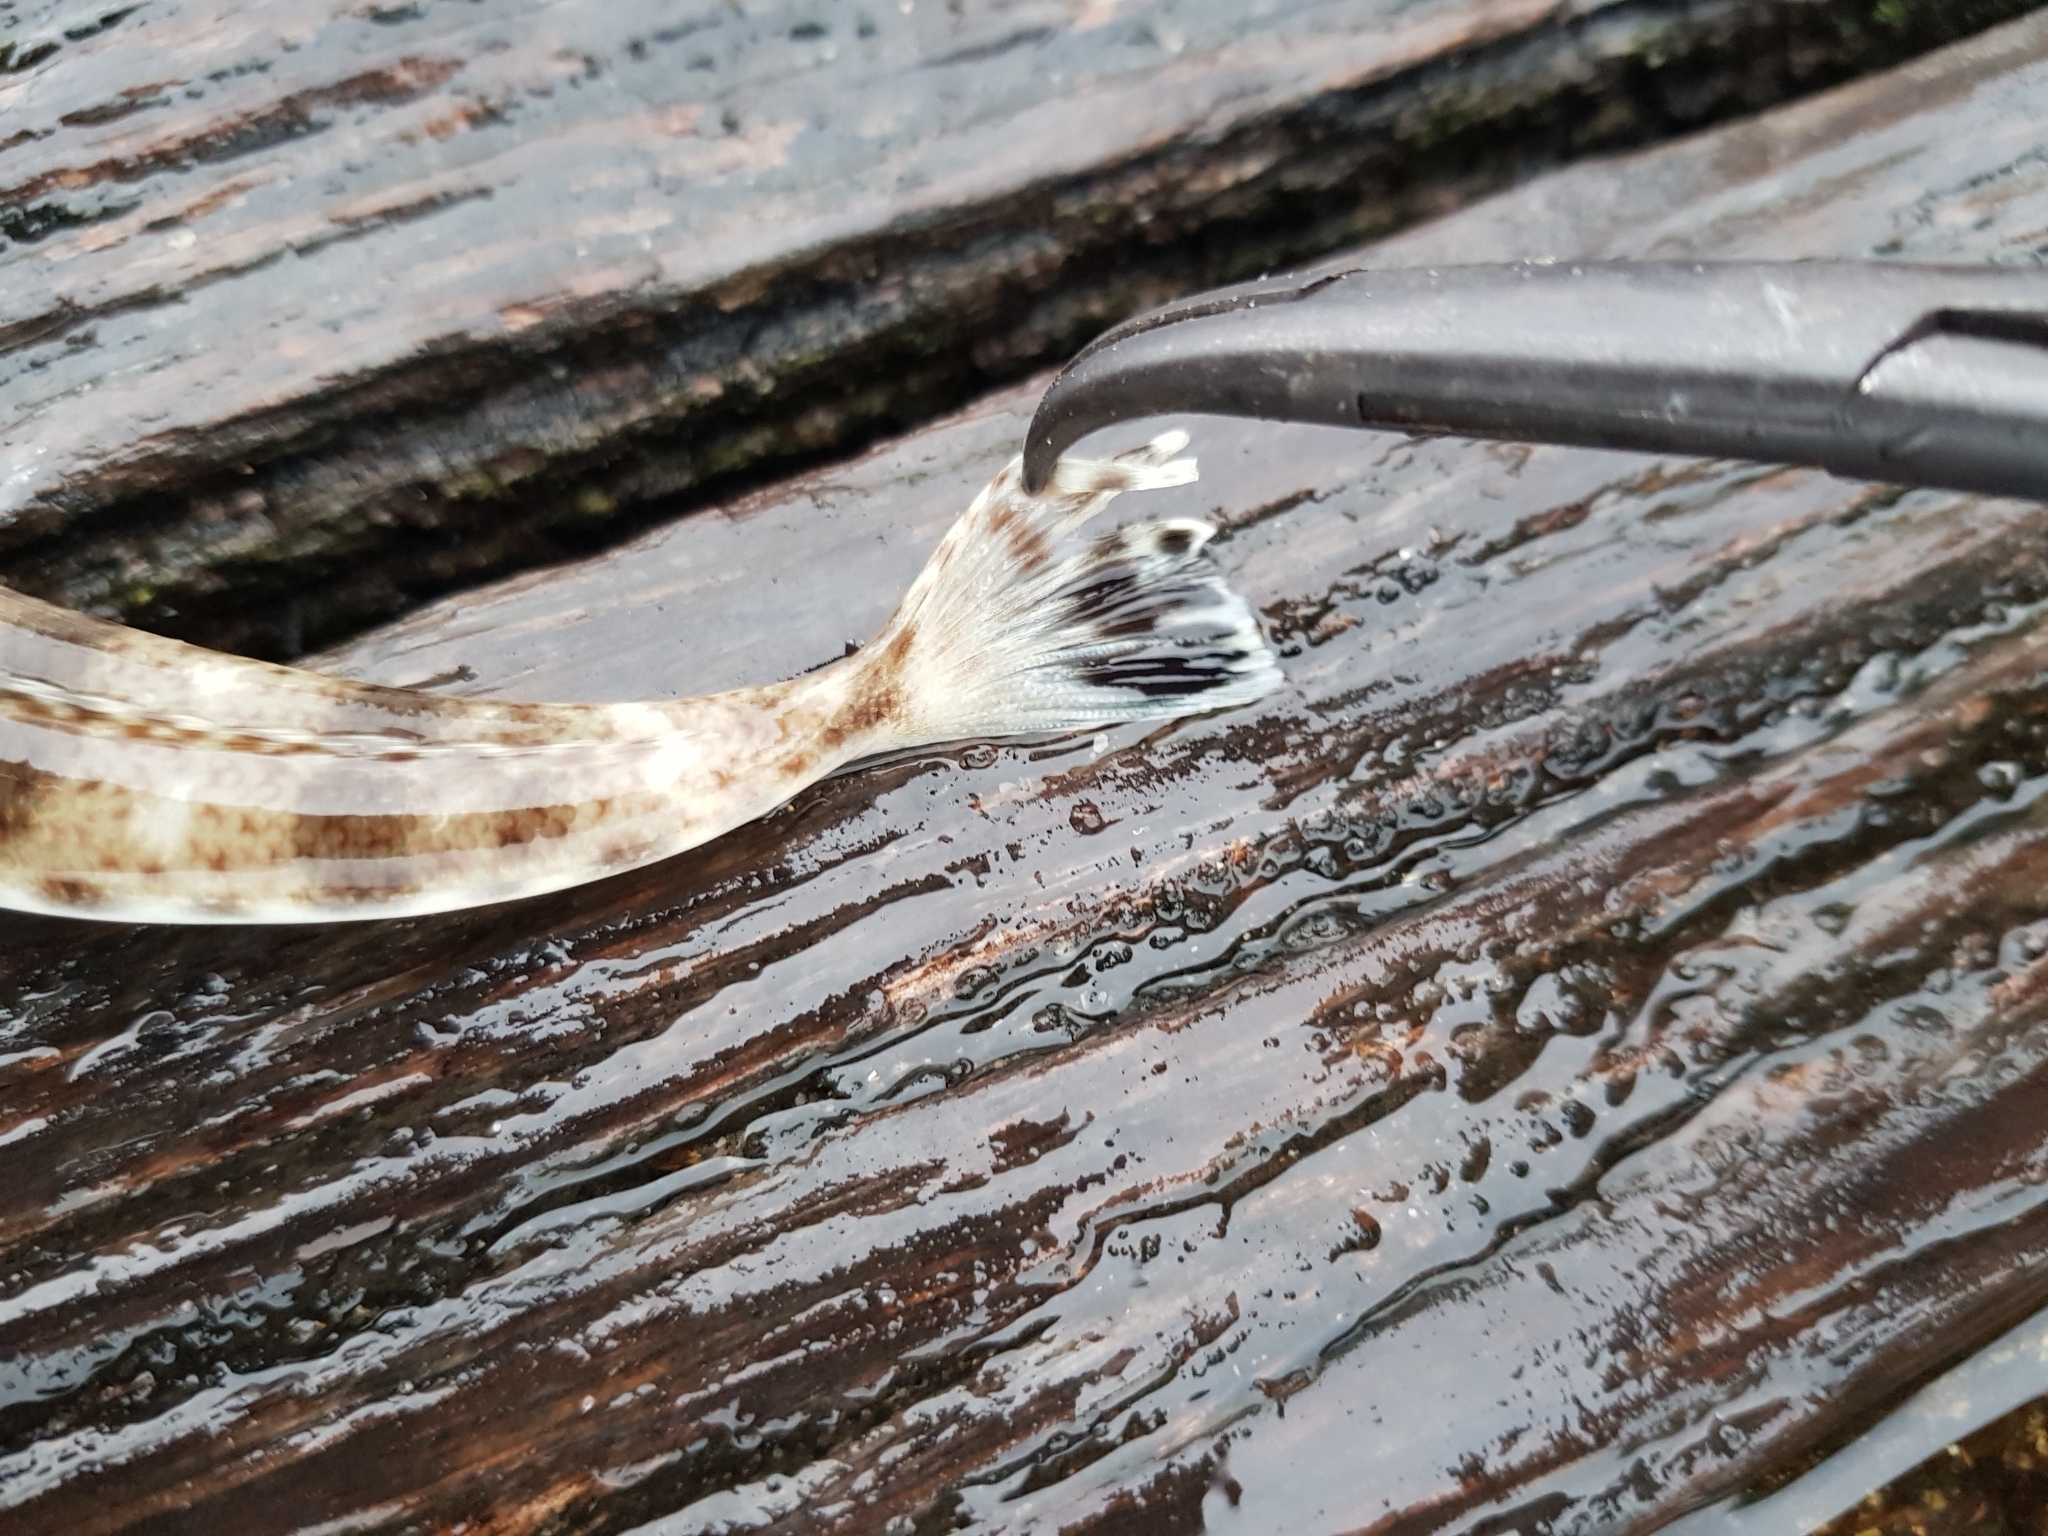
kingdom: Animalia
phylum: Chordata
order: Scorpaeniformes
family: Platycephalidae
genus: Platycephalus
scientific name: Platycephalus bassensis
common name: Sand flathead
